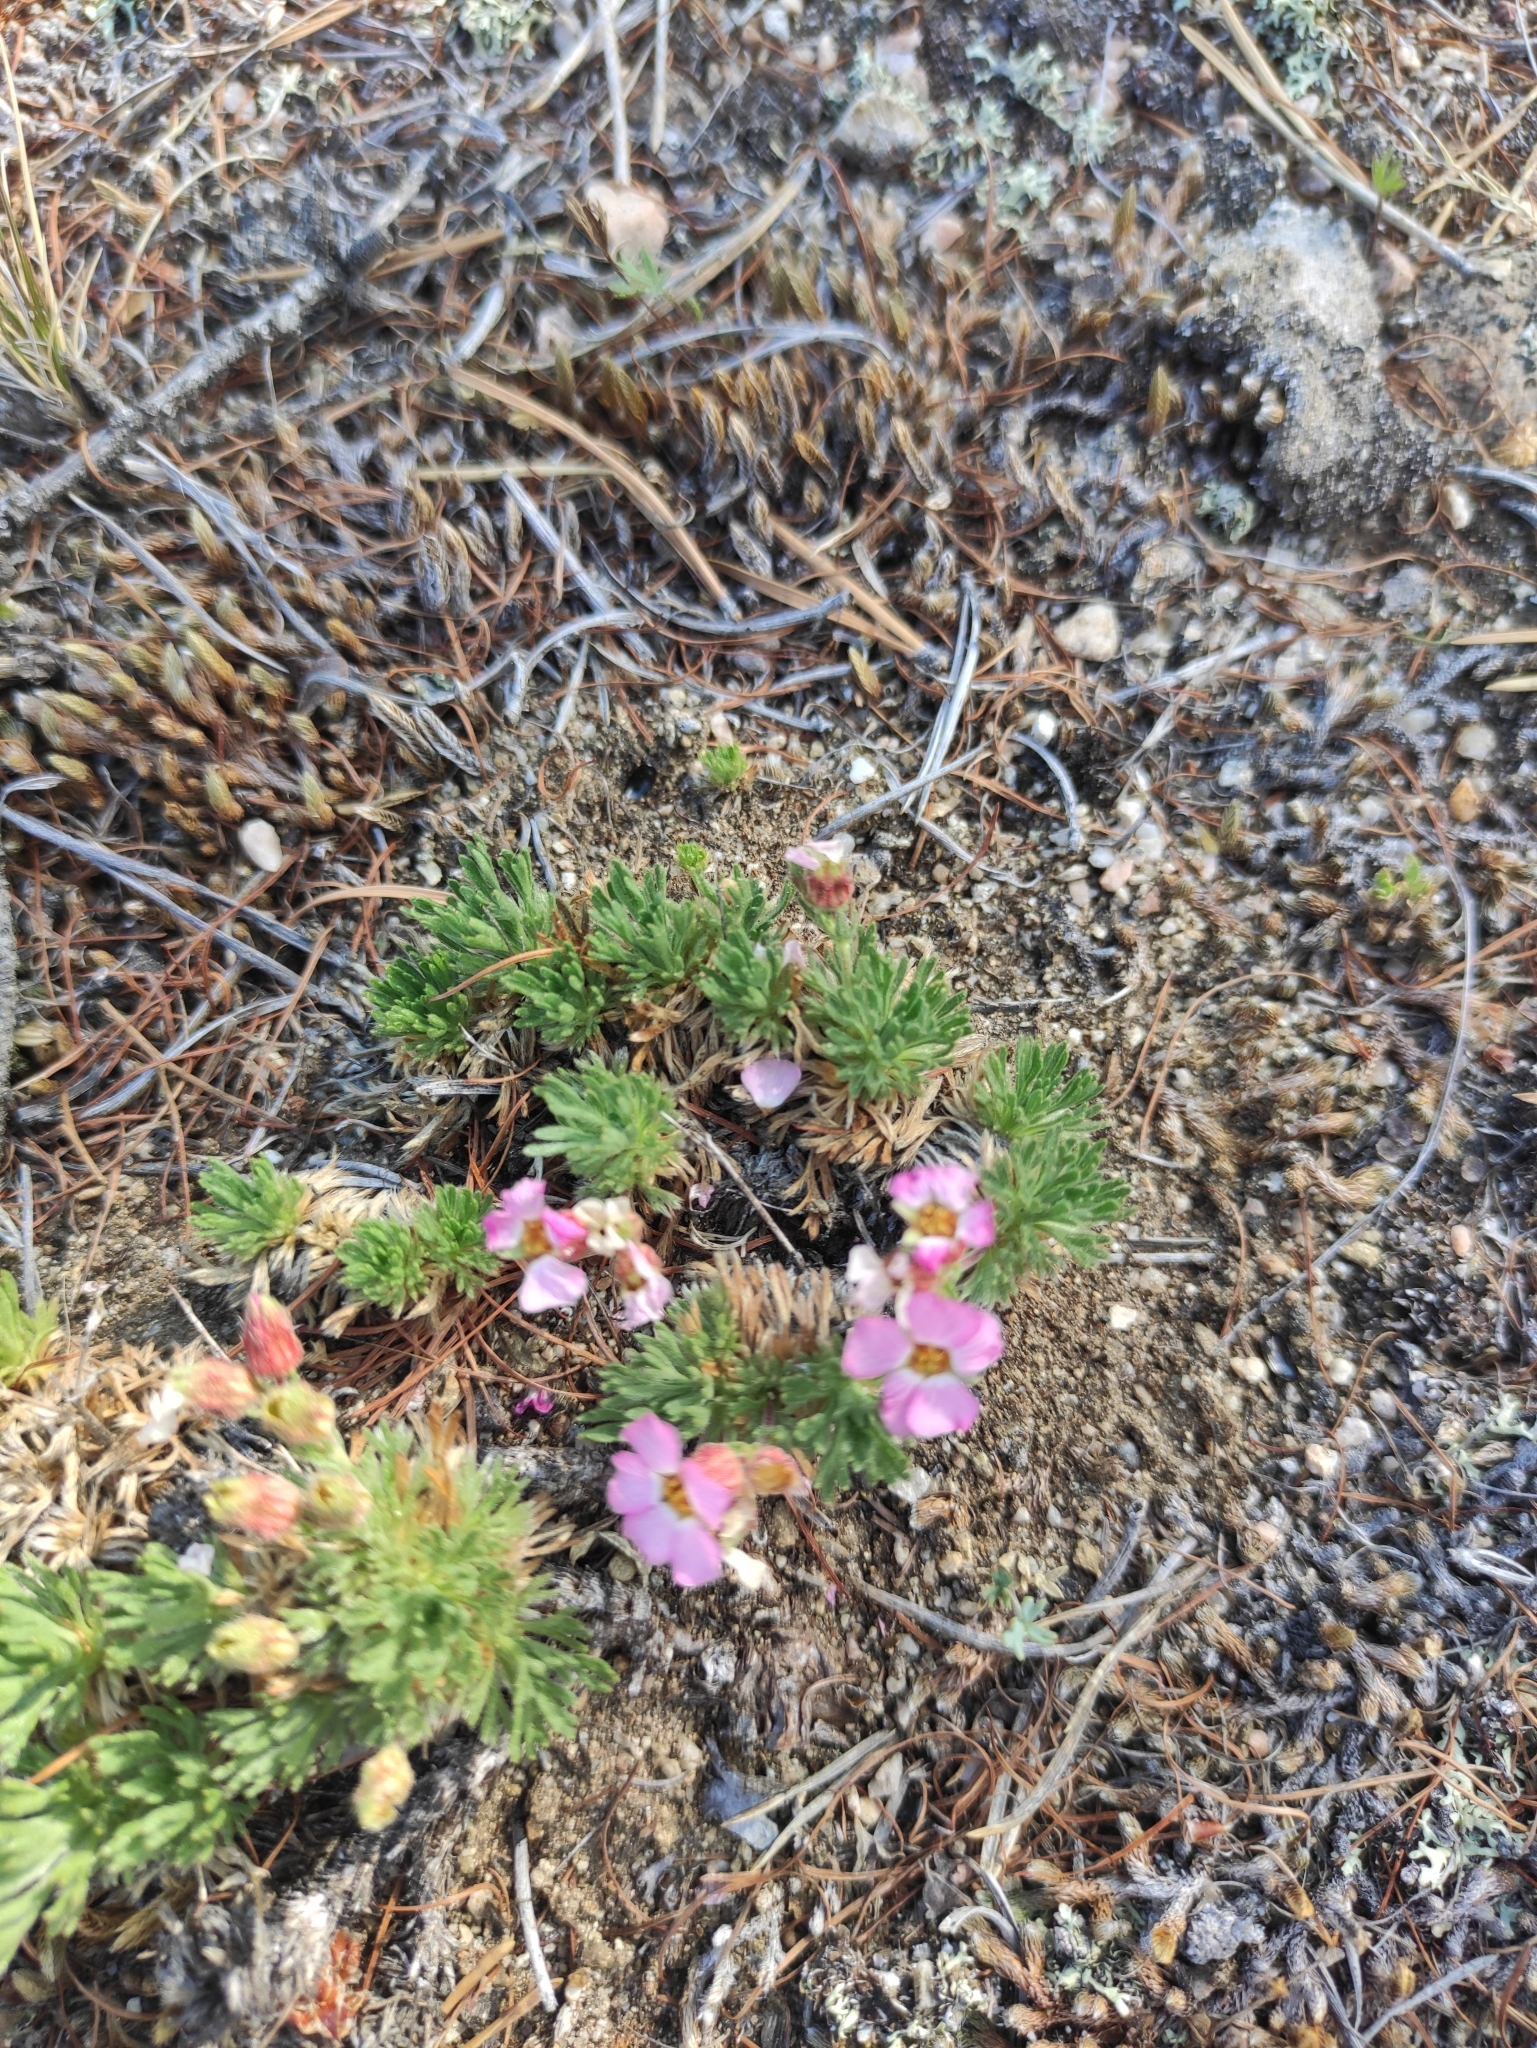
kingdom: Plantae
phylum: Tracheophyta
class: Magnoliopsida
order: Rosales
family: Rosaceae
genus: Chamaerhodos
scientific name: Chamaerhodos altaica
